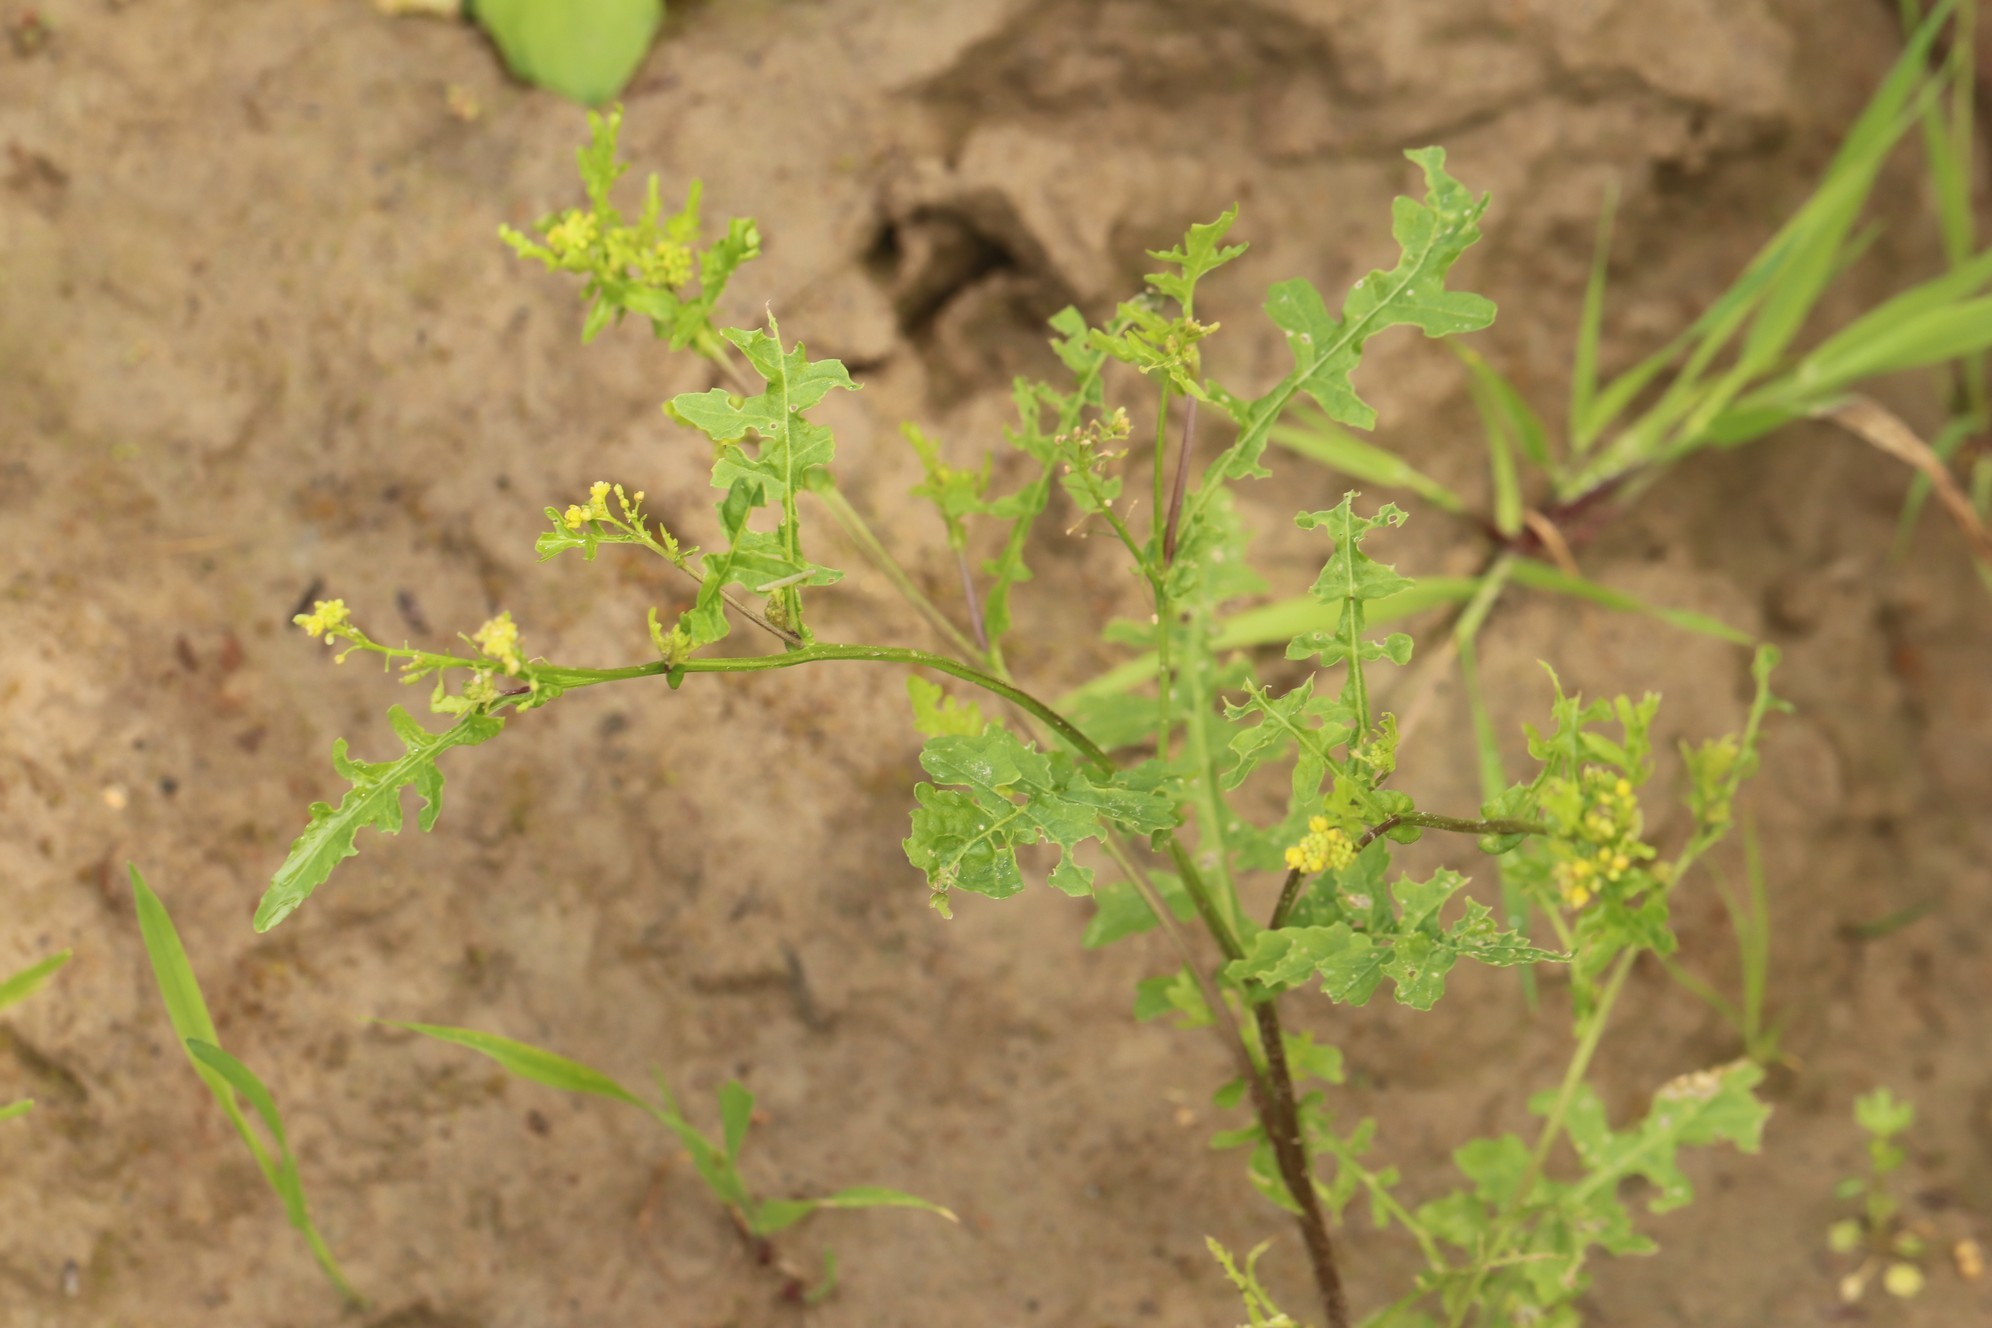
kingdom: Plantae
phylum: Tracheophyta
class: Magnoliopsida
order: Brassicales
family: Brassicaceae
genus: Rorippa
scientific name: Rorippa palustris
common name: Marsh yellow-cress
